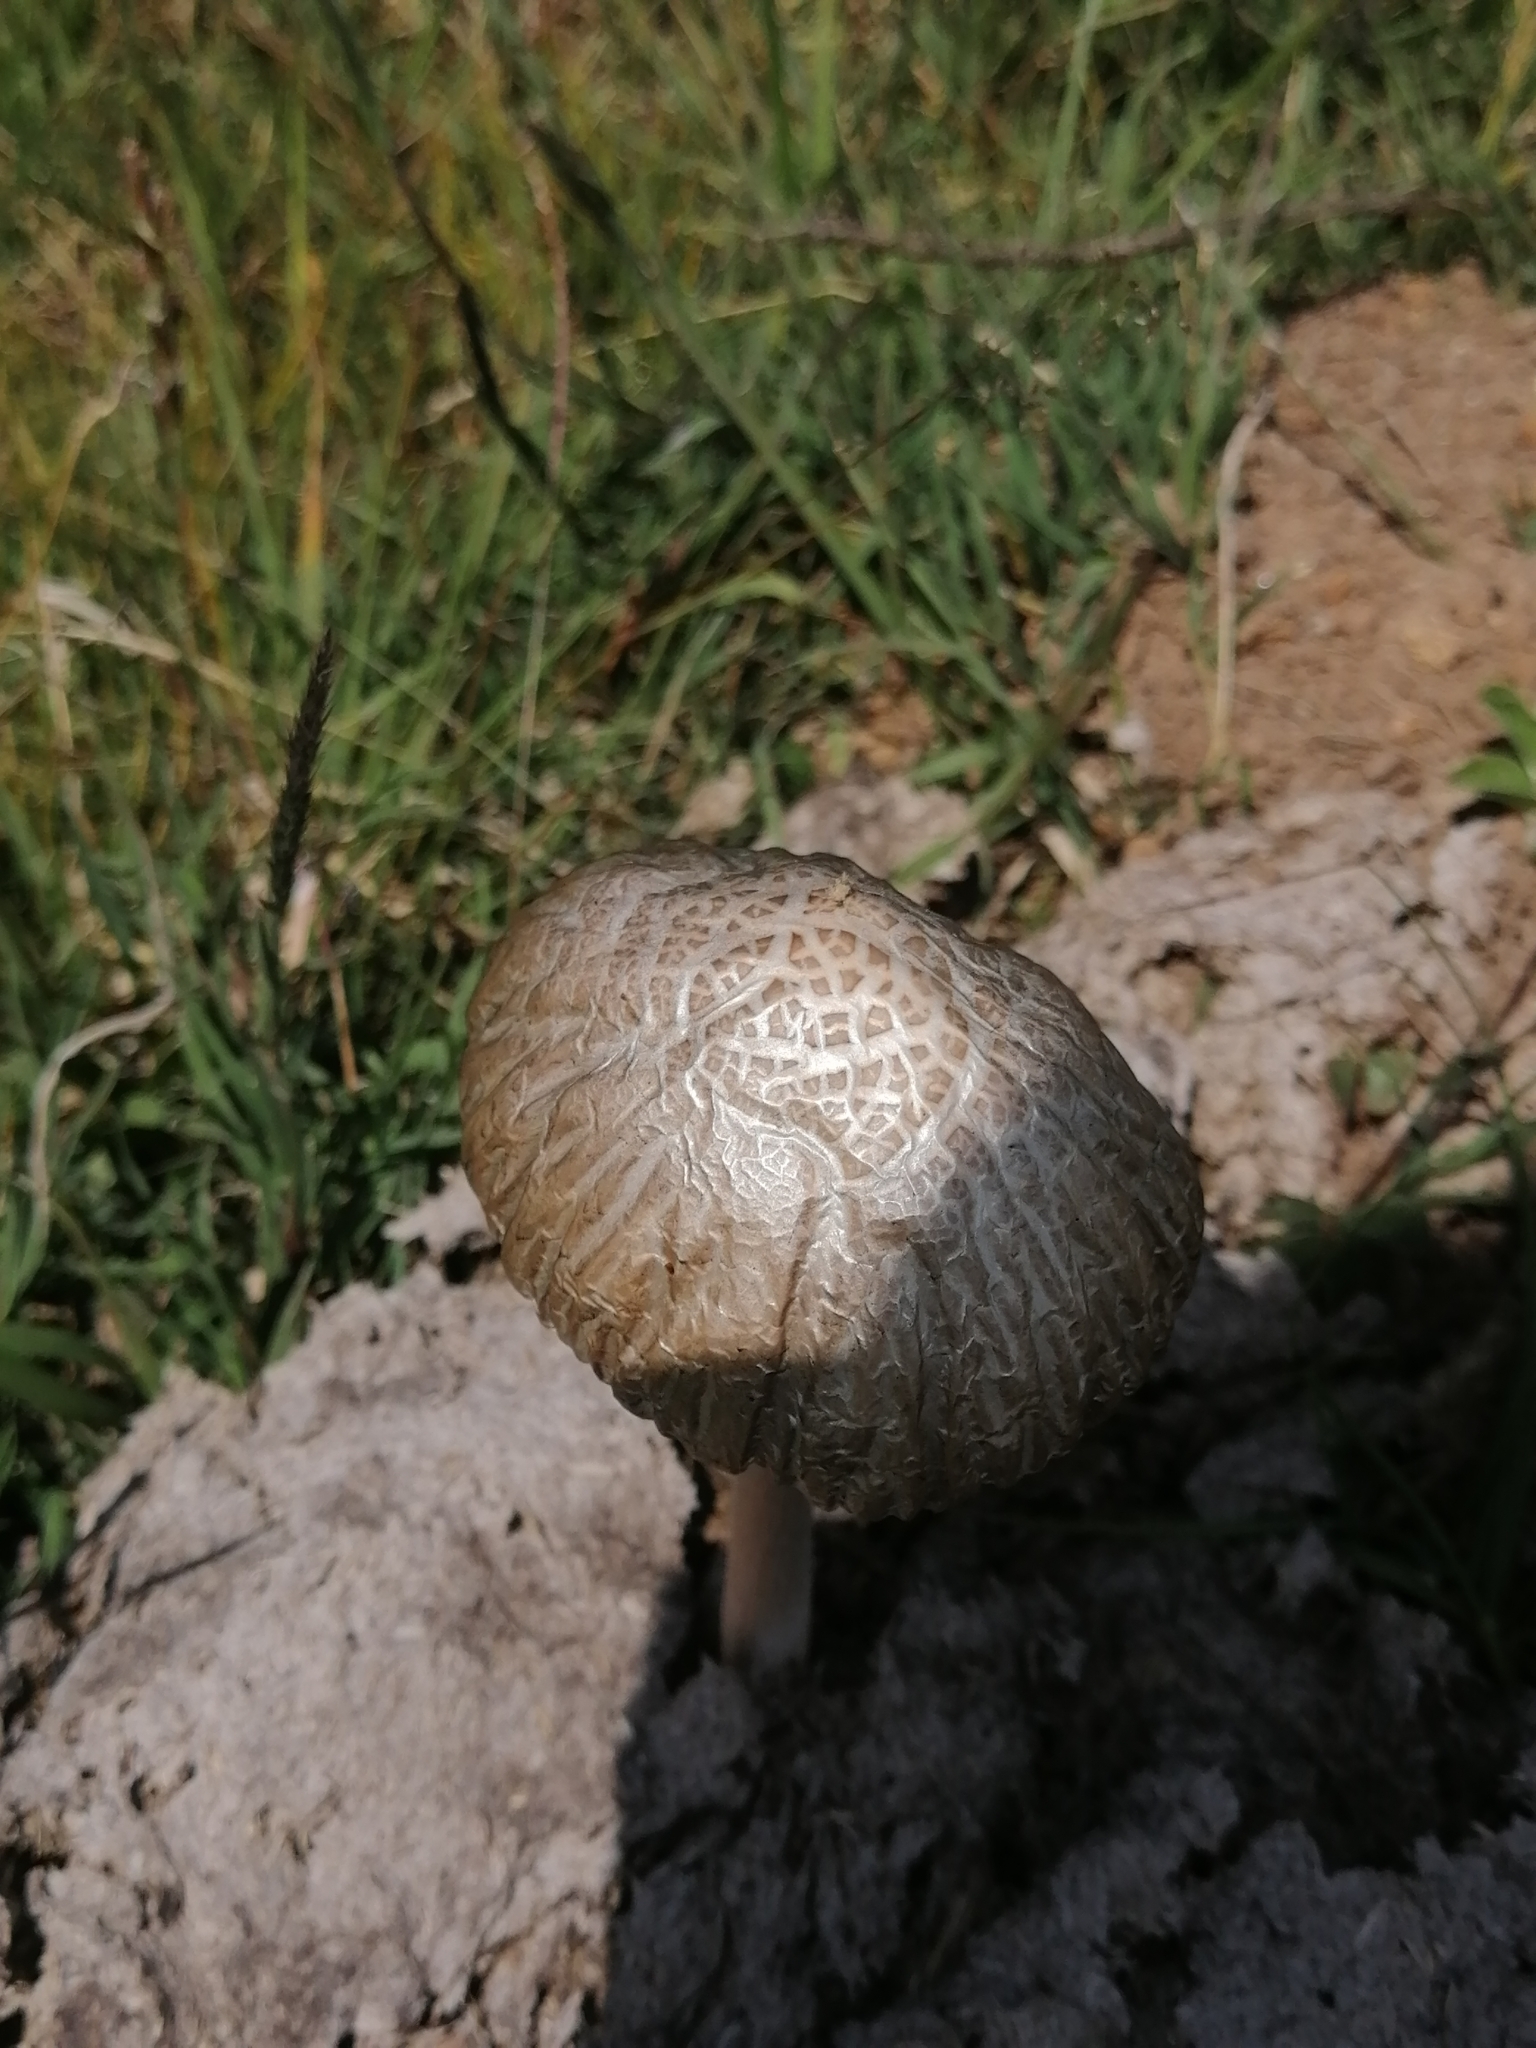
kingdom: Fungi
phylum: Basidiomycota
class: Agaricomycetes
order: Agaricales
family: Bolbitiaceae
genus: Panaeolus
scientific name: Panaeolus antillarum
